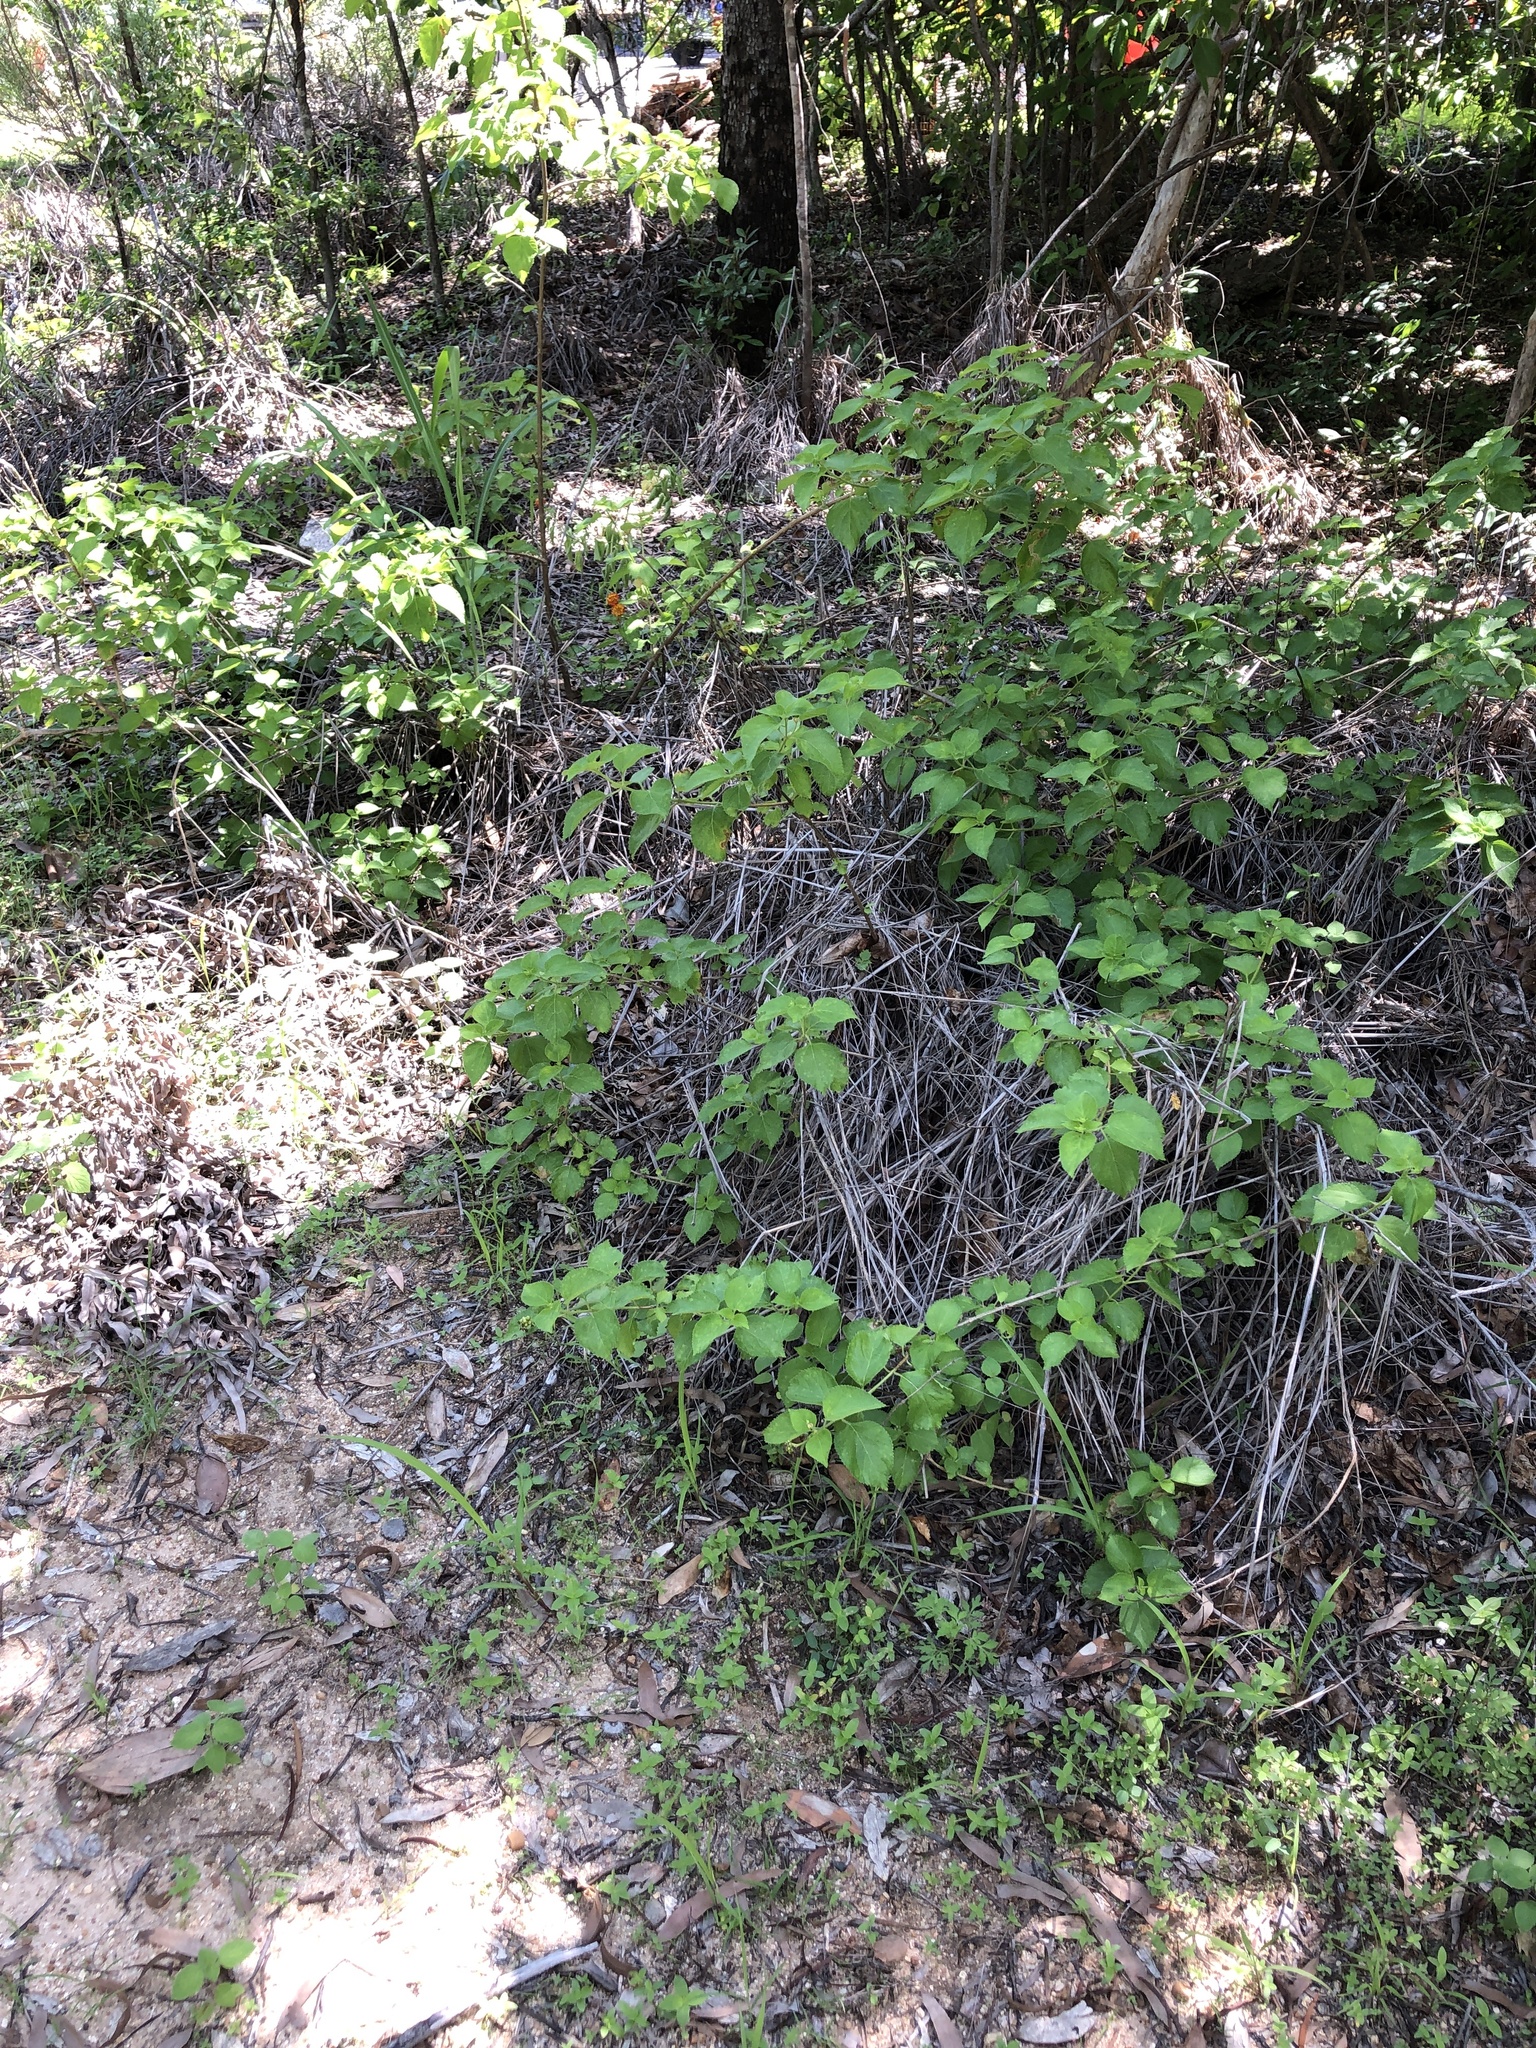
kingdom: Plantae
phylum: Tracheophyta
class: Magnoliopsida
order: Lamiales
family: Verbenaceae
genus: Lantana
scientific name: Lantana camara
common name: Lantana
